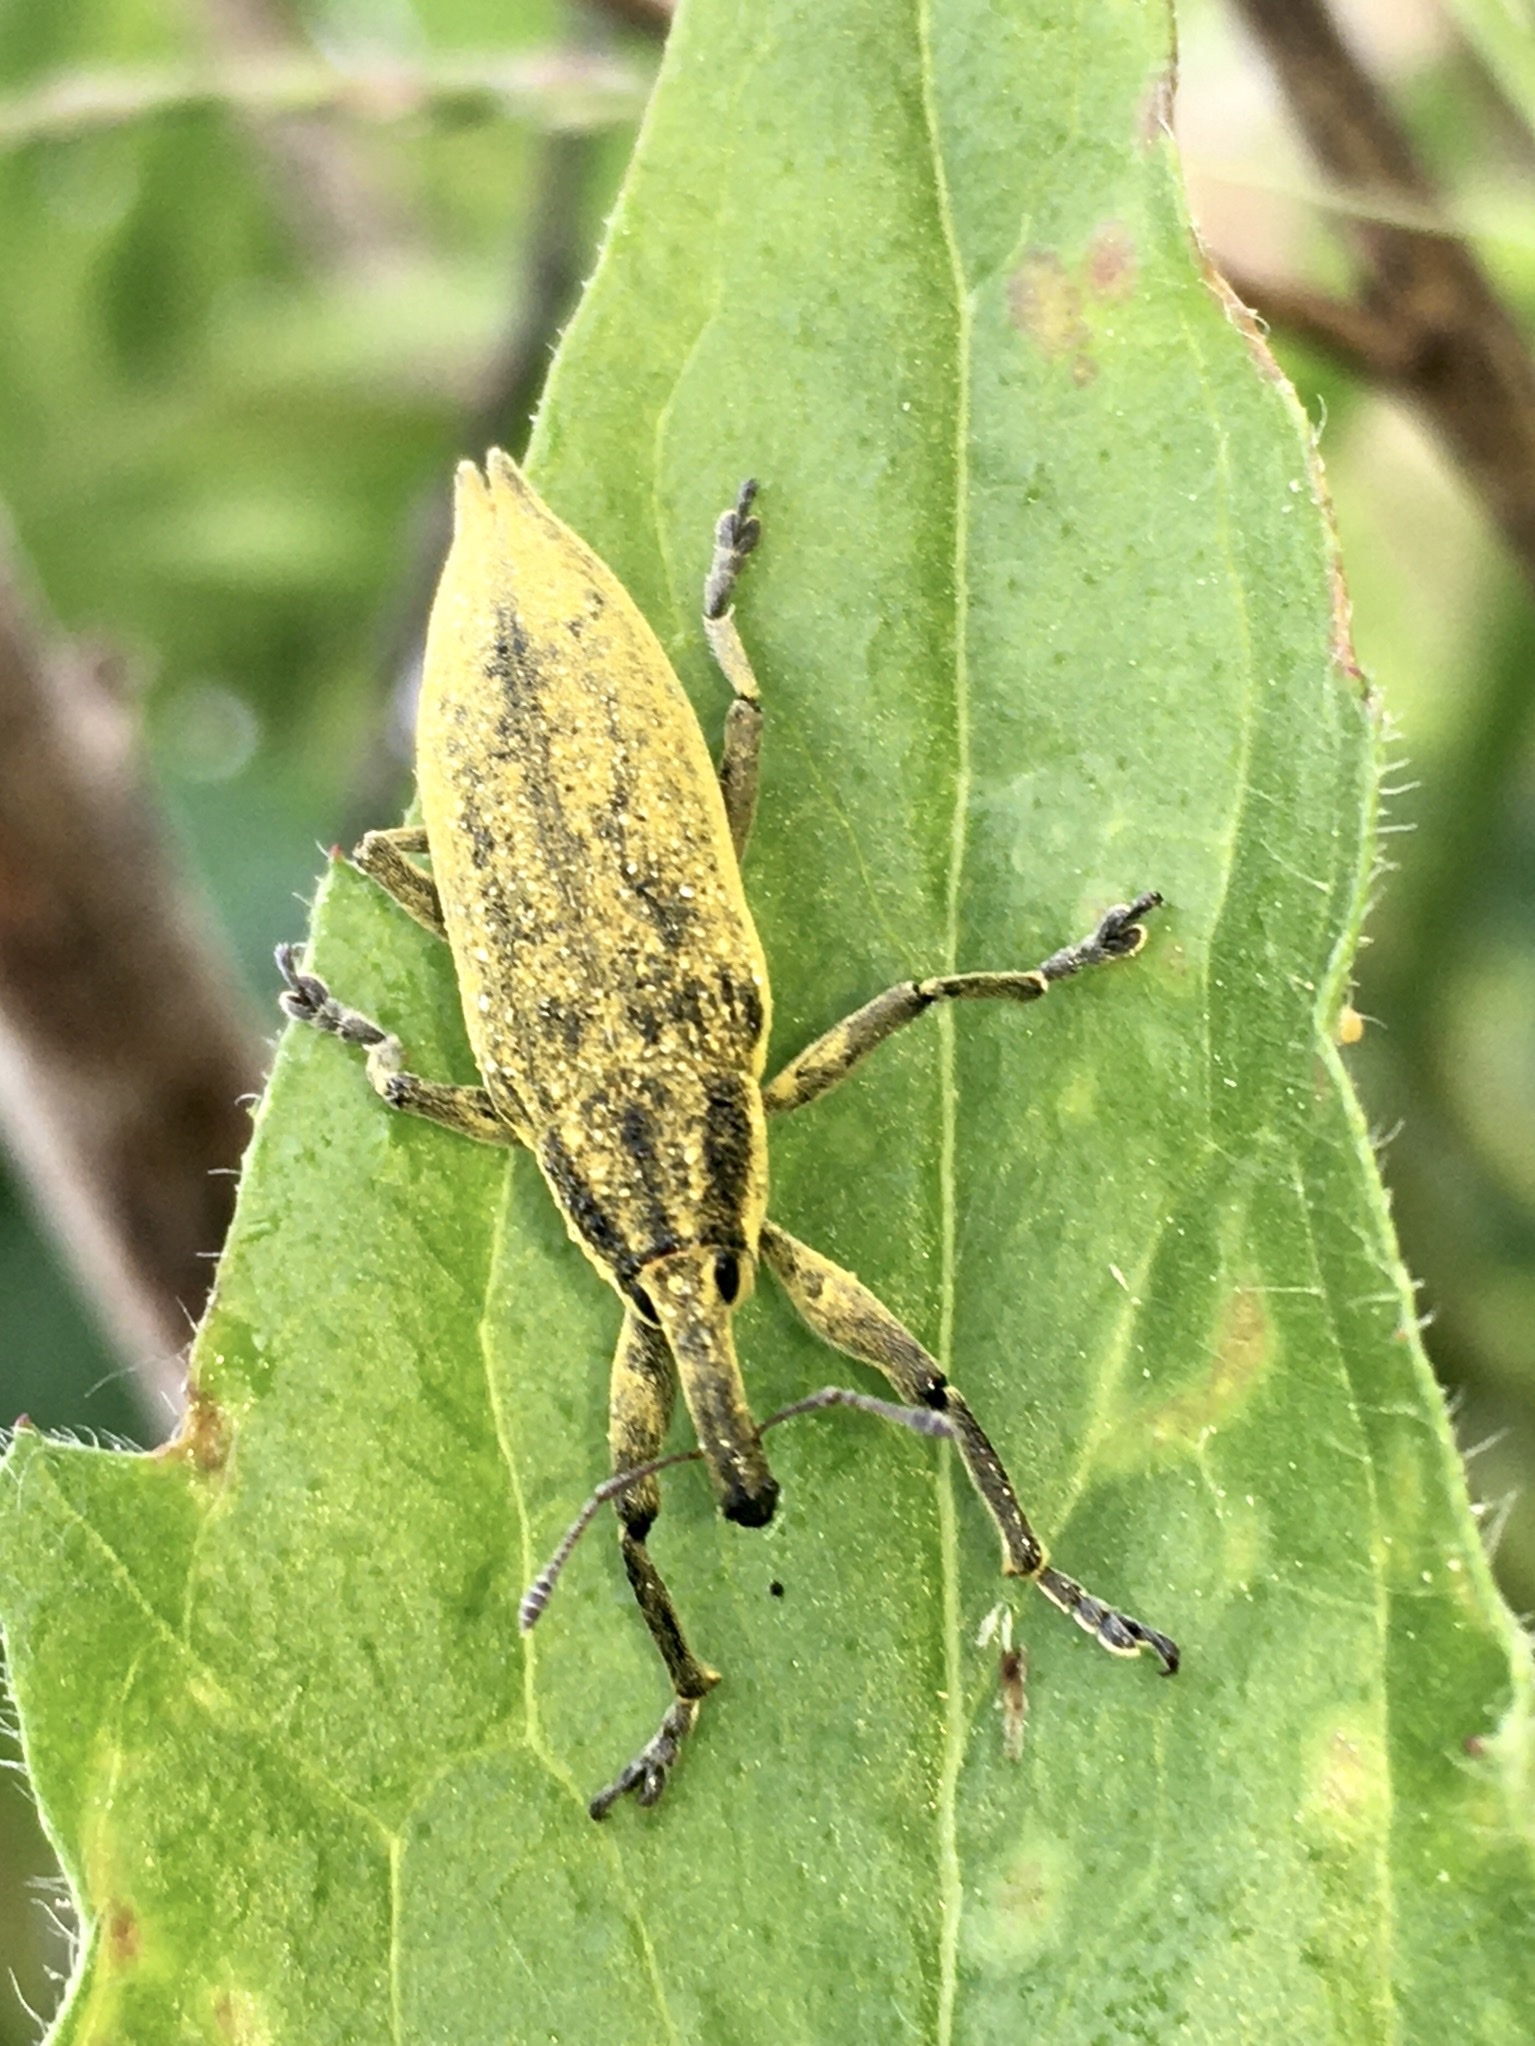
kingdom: Animalia
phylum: Arthropoda
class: Insecta
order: Coleoptera
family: Curculionidae
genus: Lixus
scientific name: Lixus iridis
